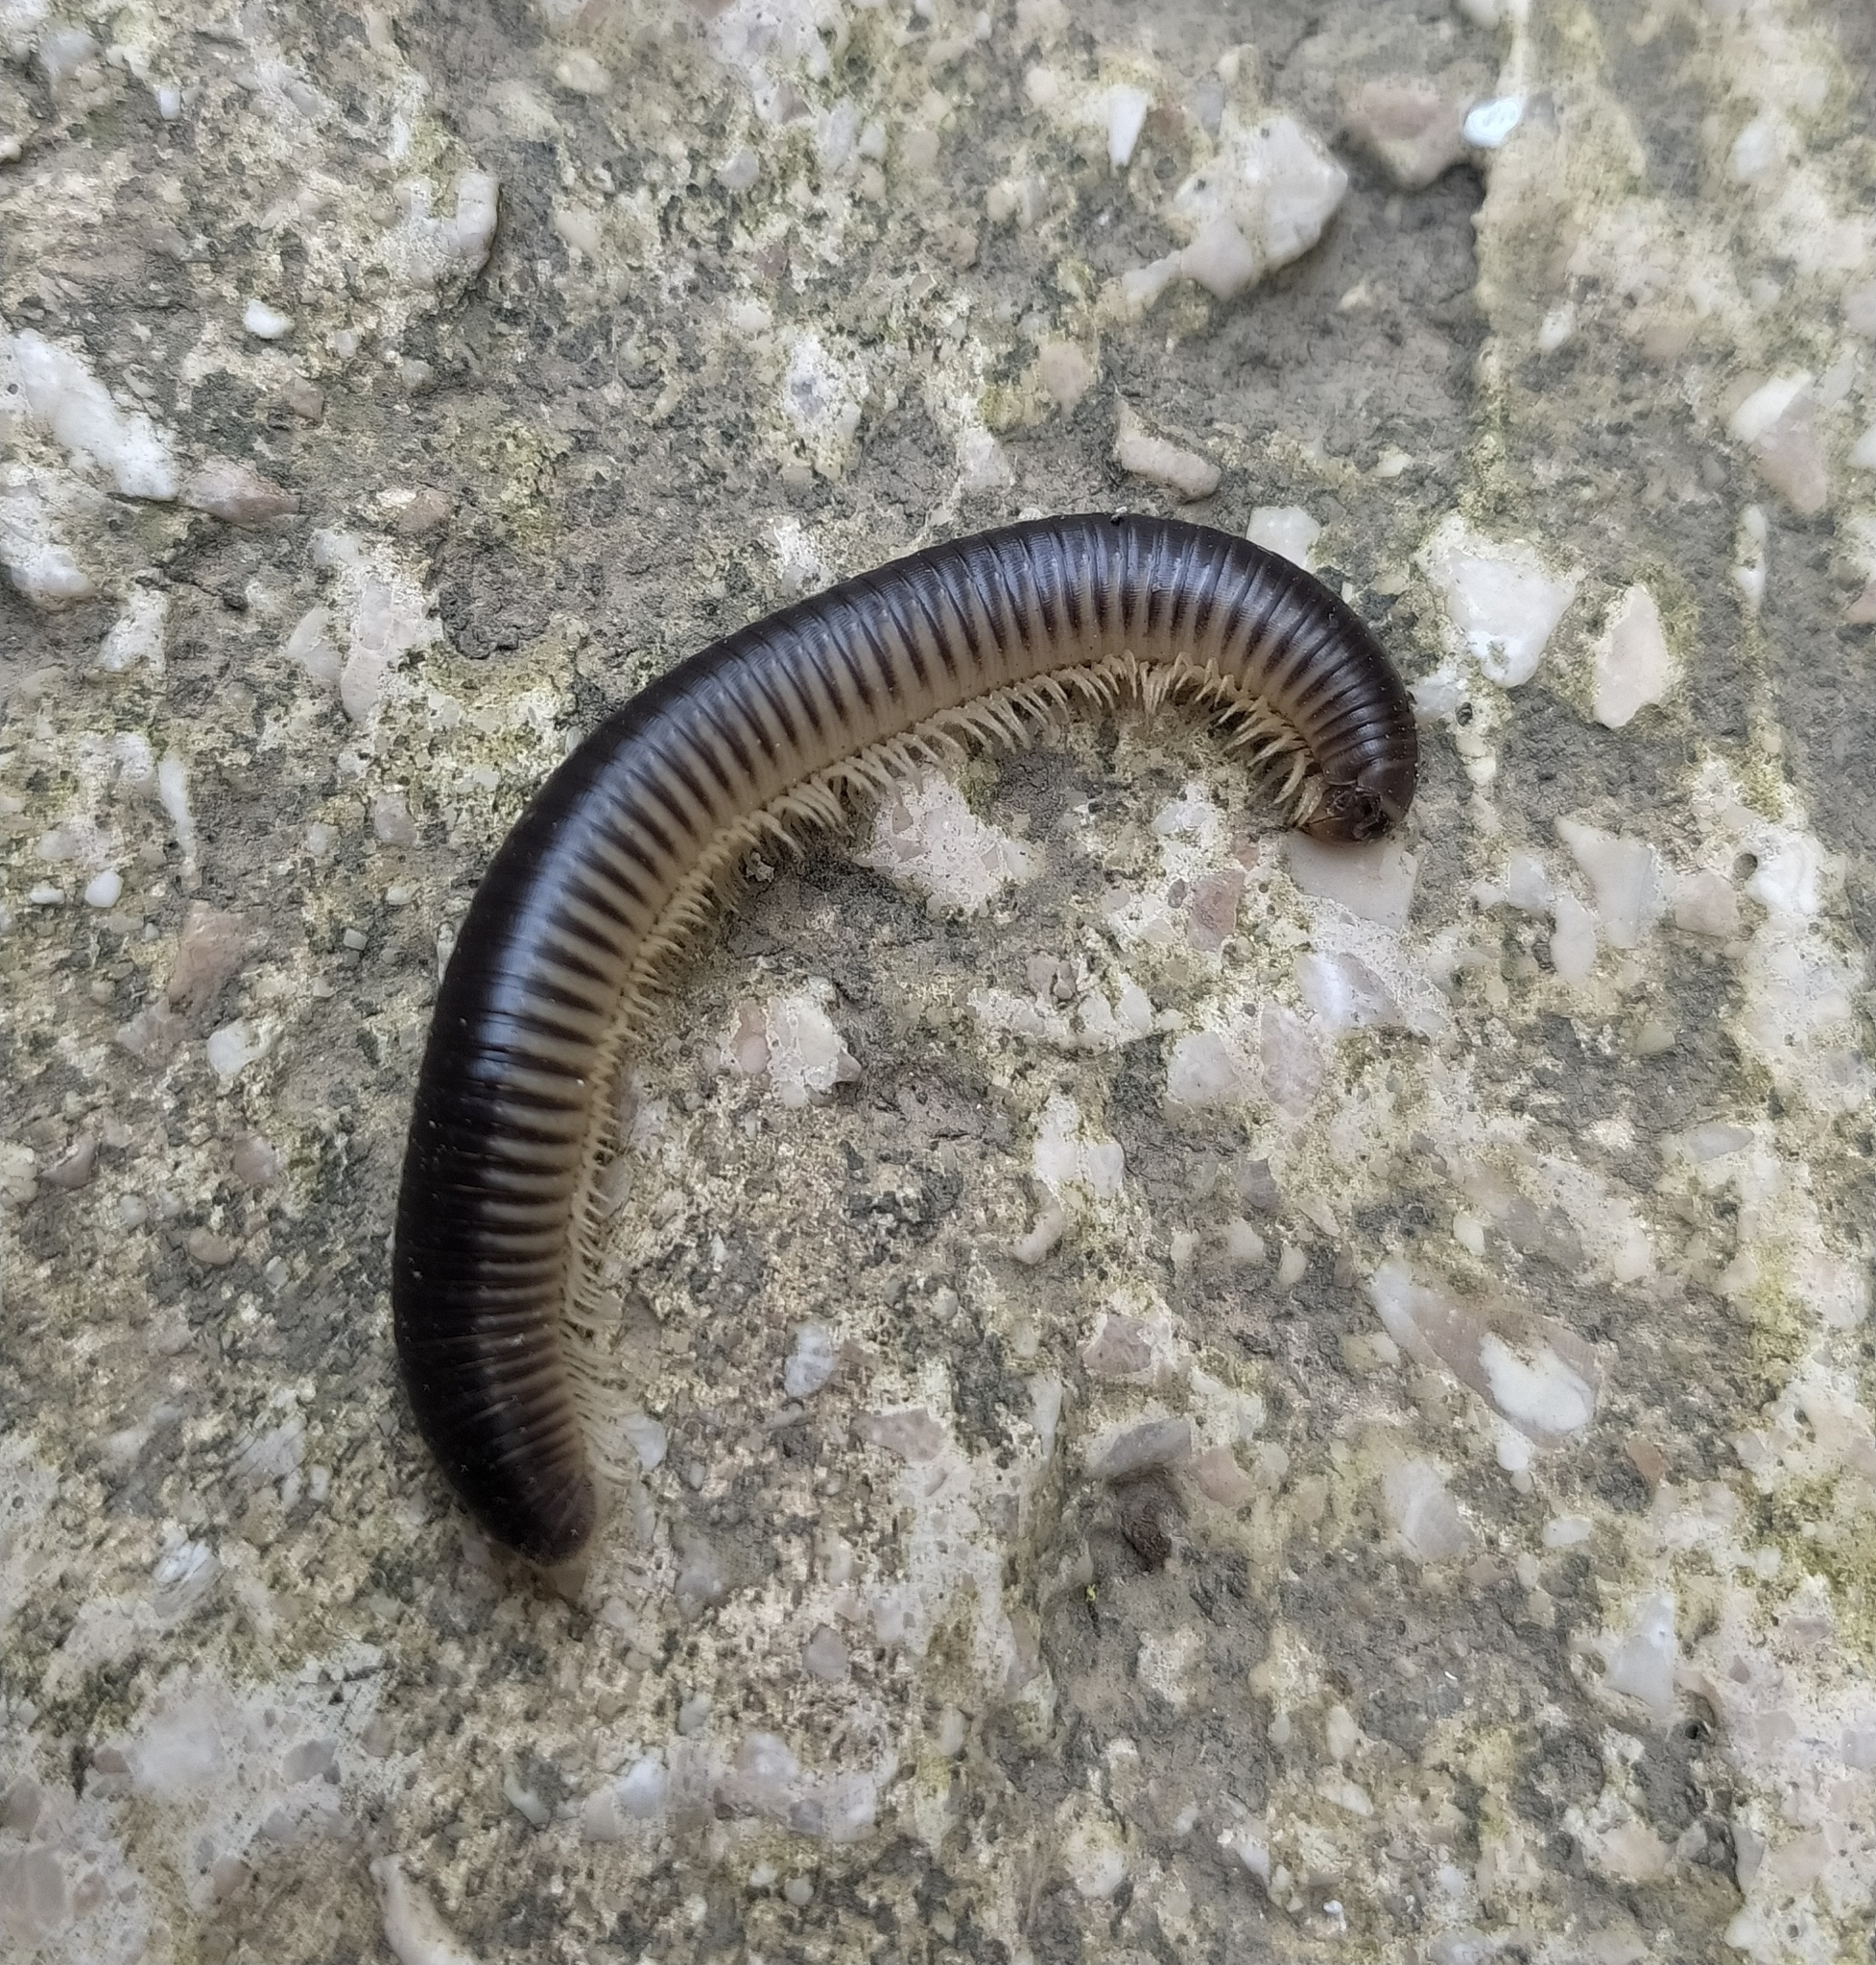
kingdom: Animalia
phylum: Arthropoda
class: Diplopoda
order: Julida
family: Julidae
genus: Pachyiulus
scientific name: Pachyiulus flavipes
